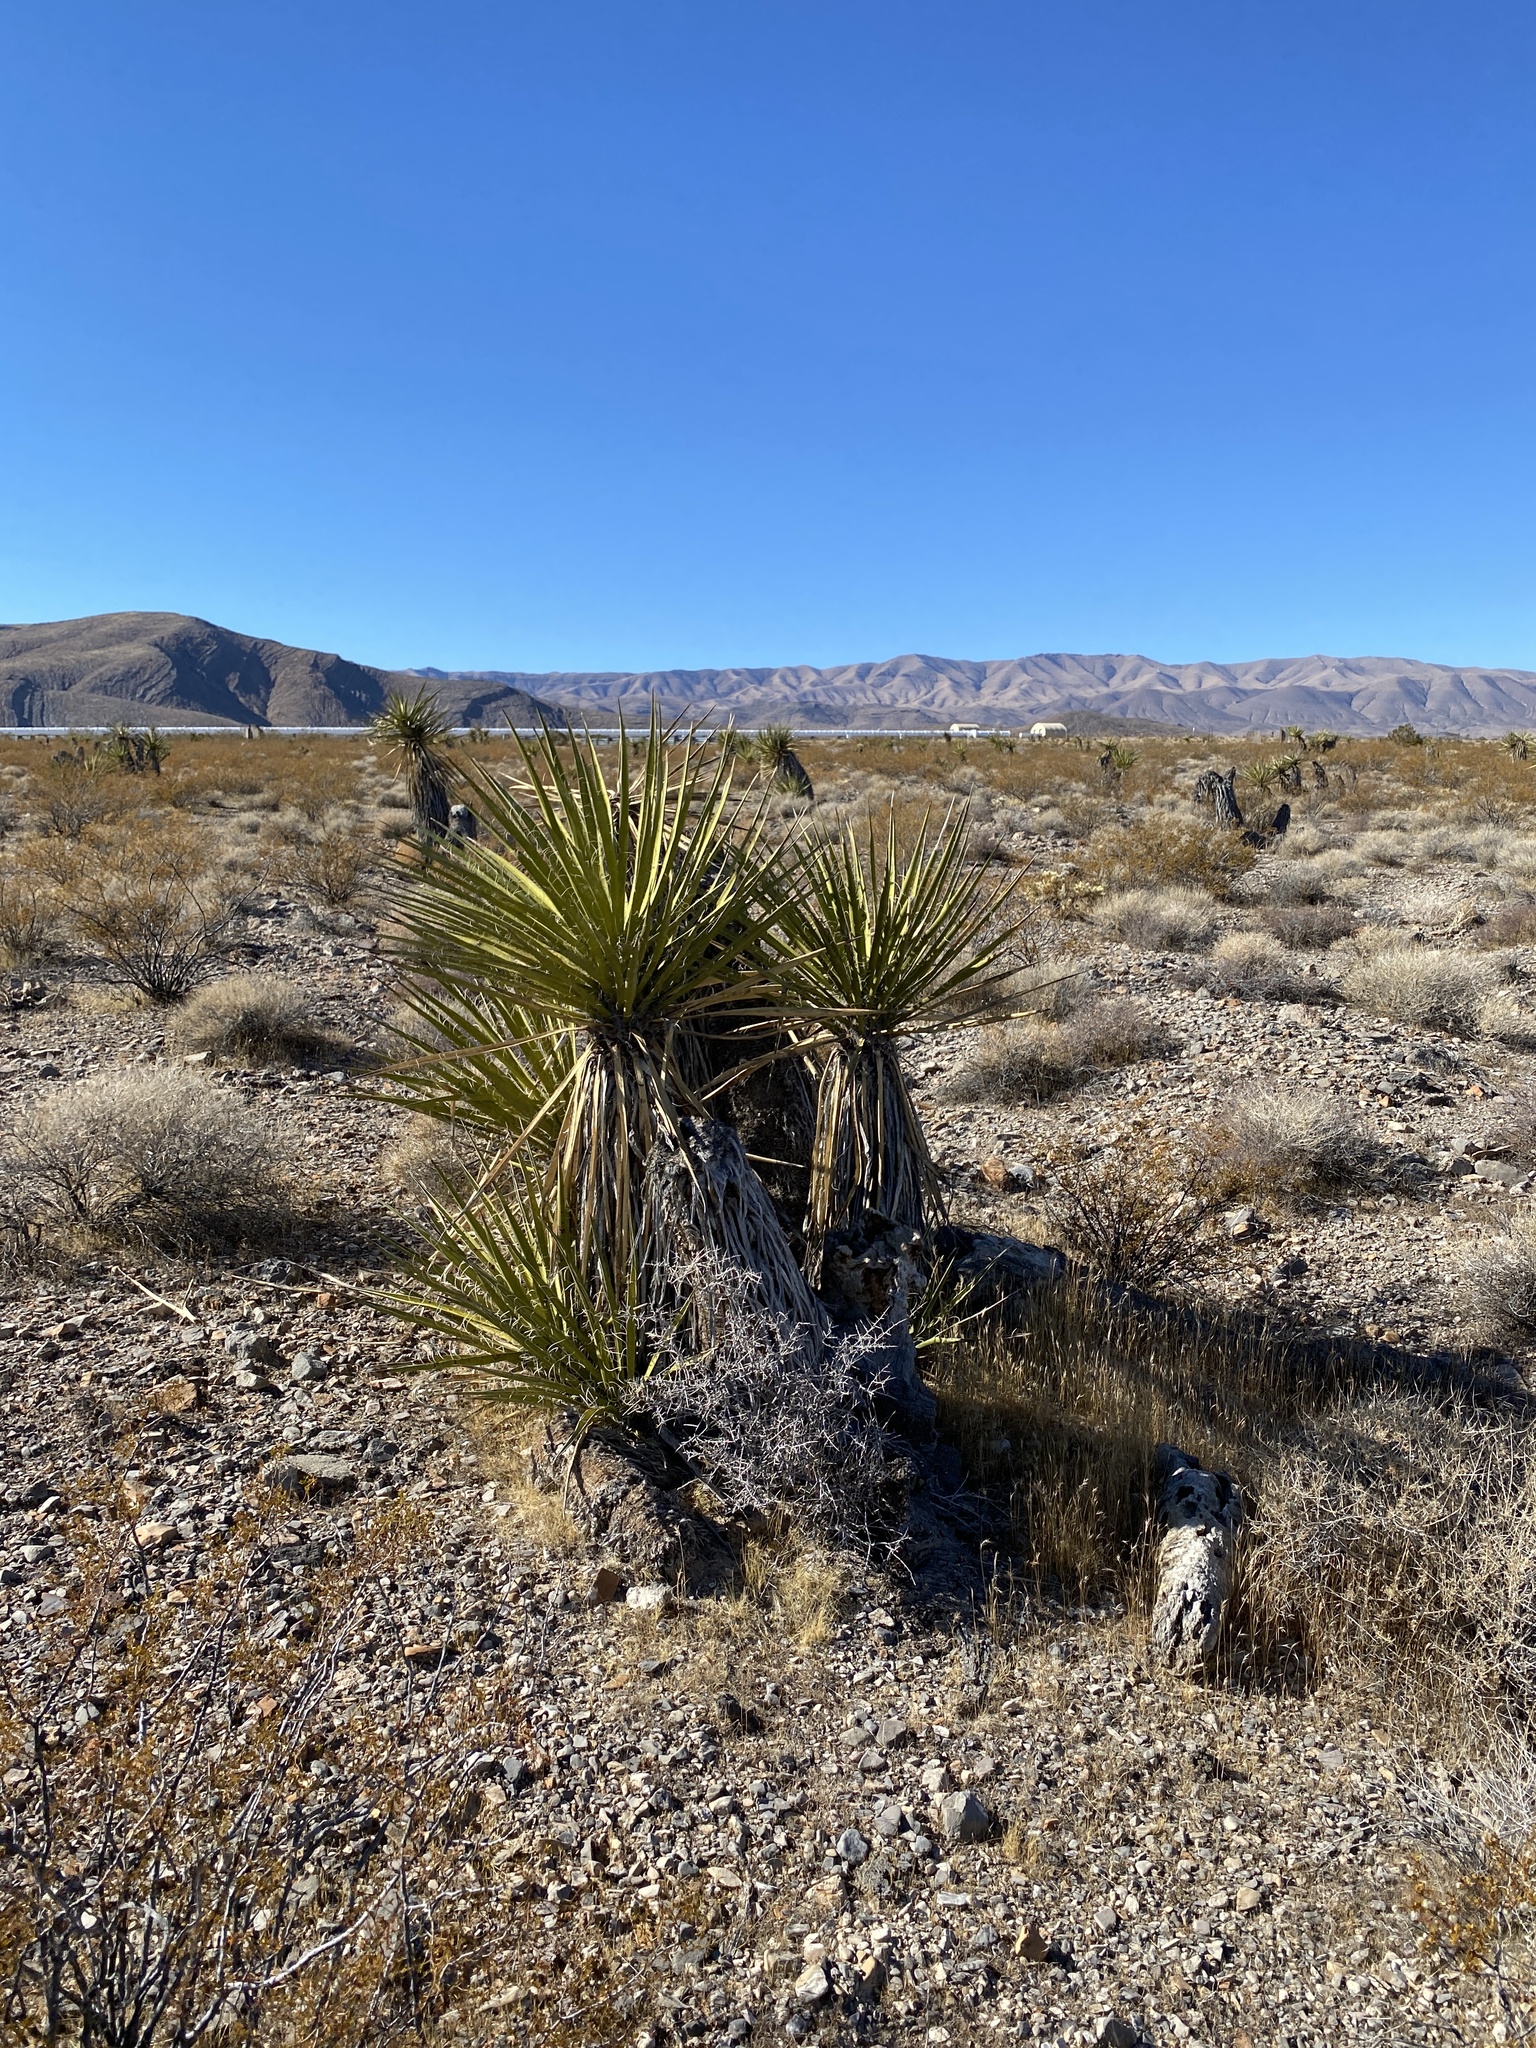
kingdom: Plantae
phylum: Tracheophyta
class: Liliopsida
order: Asparagales
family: Asparagaceae
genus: Yucca
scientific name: Yucca schidigera
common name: Mojave yucca
